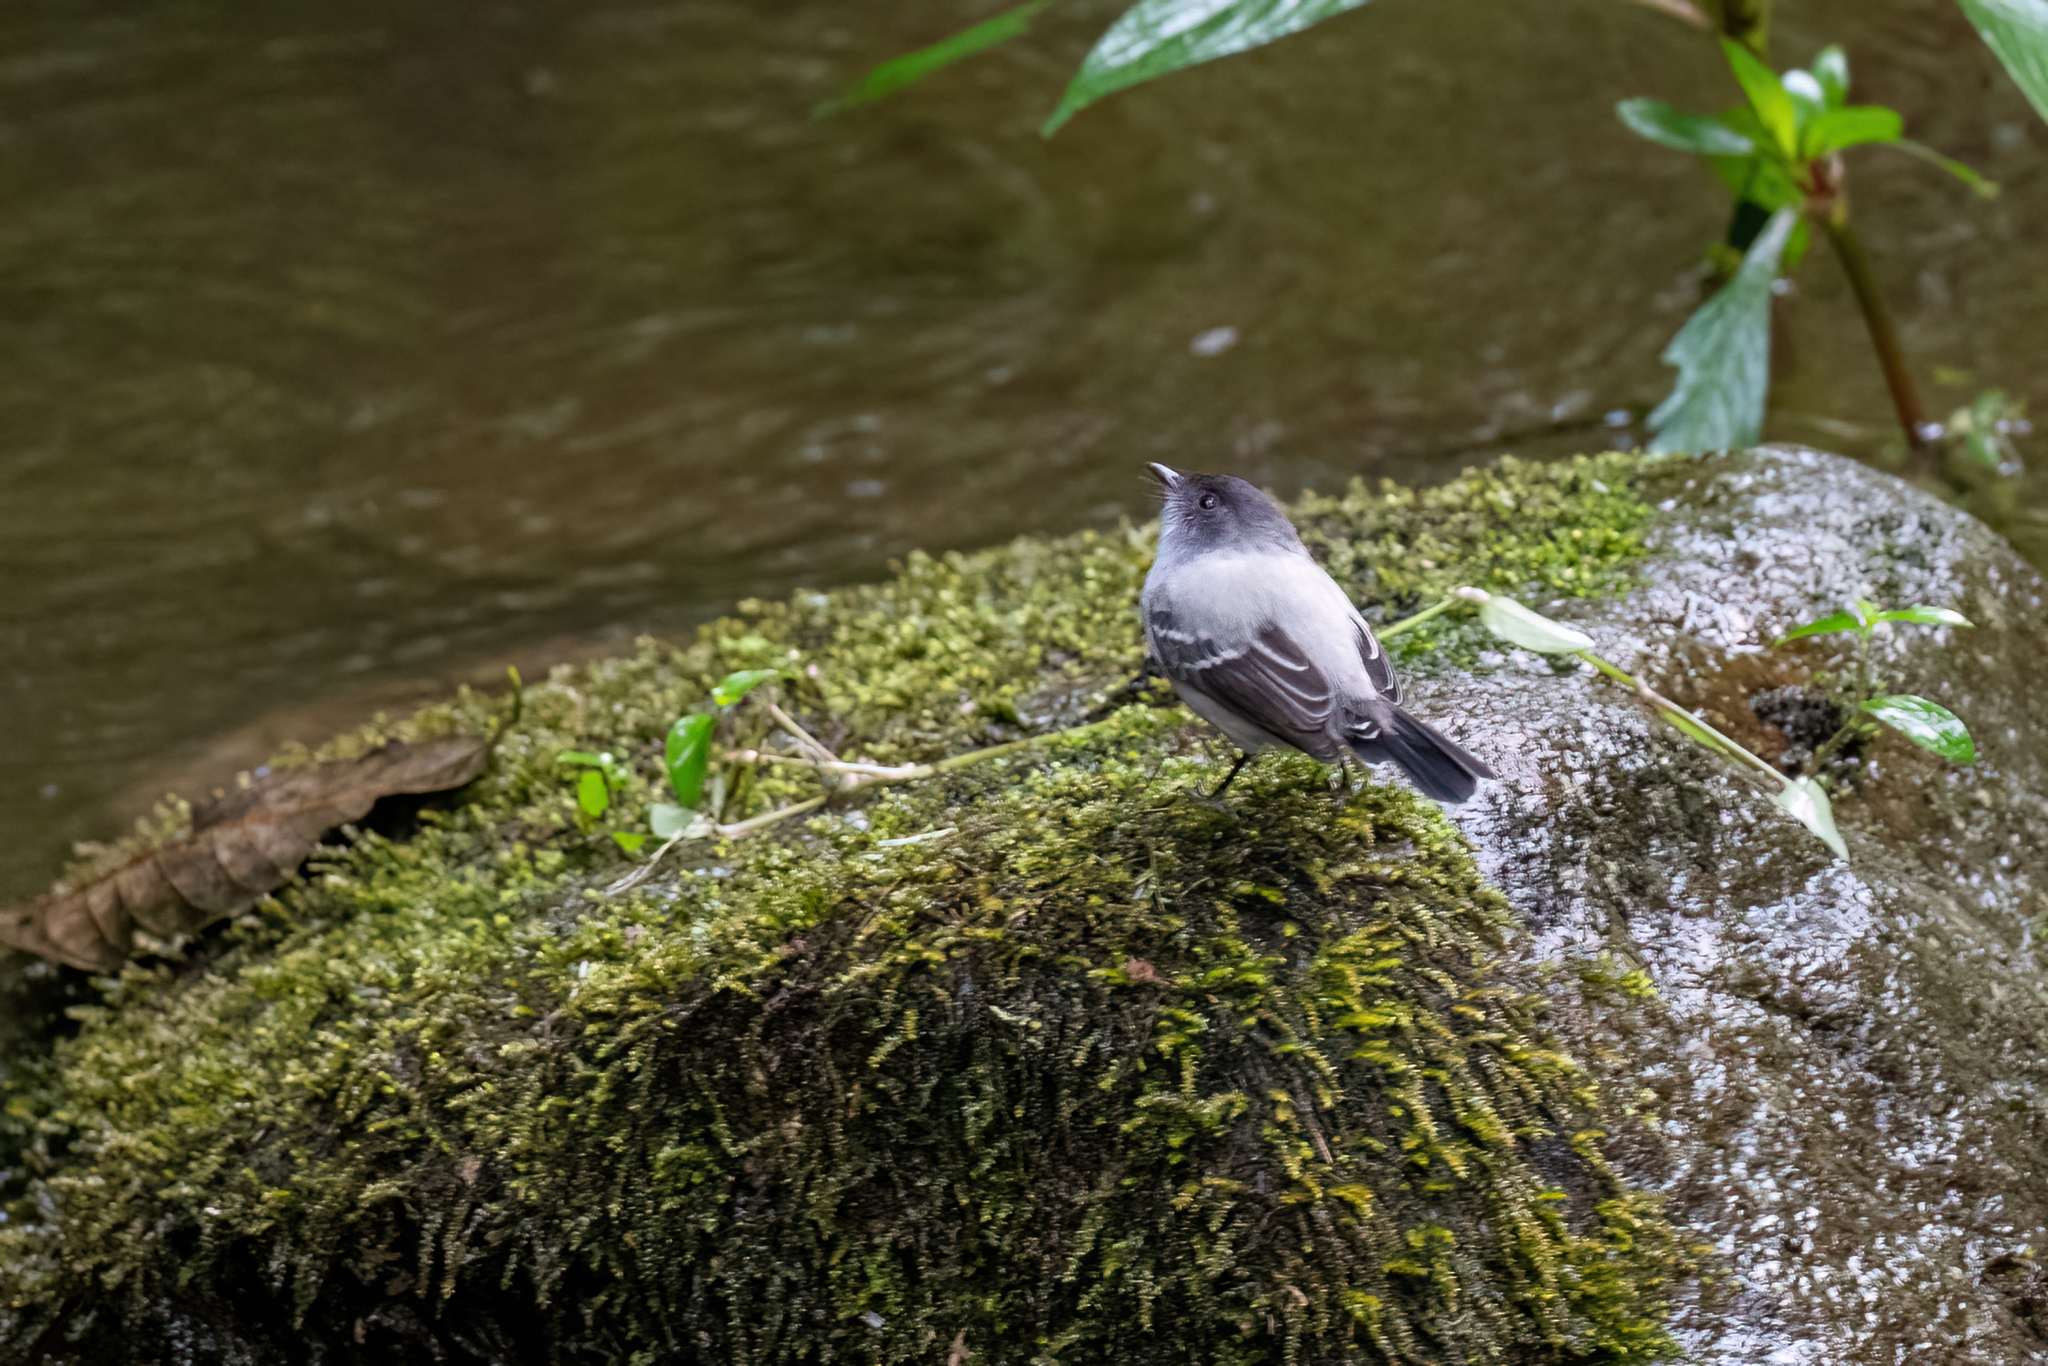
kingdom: Animalia
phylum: Chordata
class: Aves
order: Passeriformes
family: Tyrannidae
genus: Serpophaga
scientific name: Serpophaga cinerea
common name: Torrent tyrannulet
